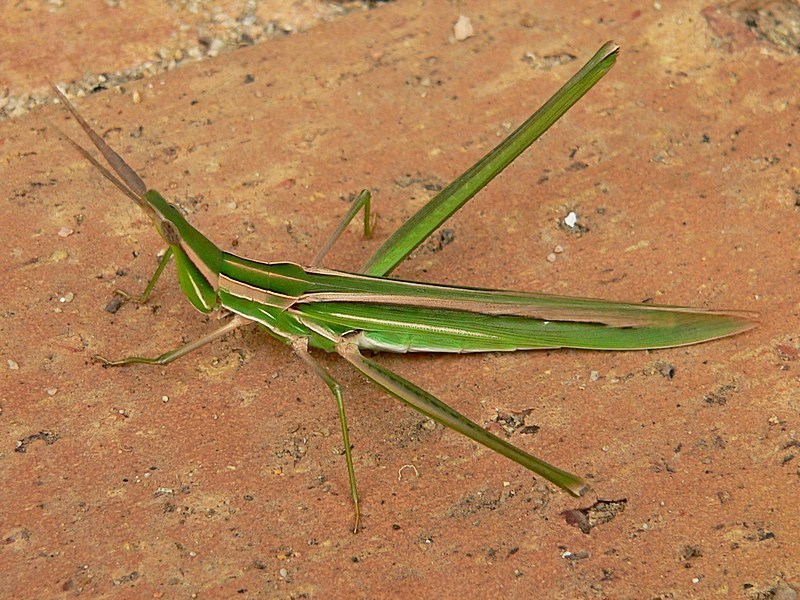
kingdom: Animalia
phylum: Arthropoda
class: Insecta
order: Orthoptera
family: Acrididae
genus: Acrida
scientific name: Acrida conica
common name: Giant green slantface
